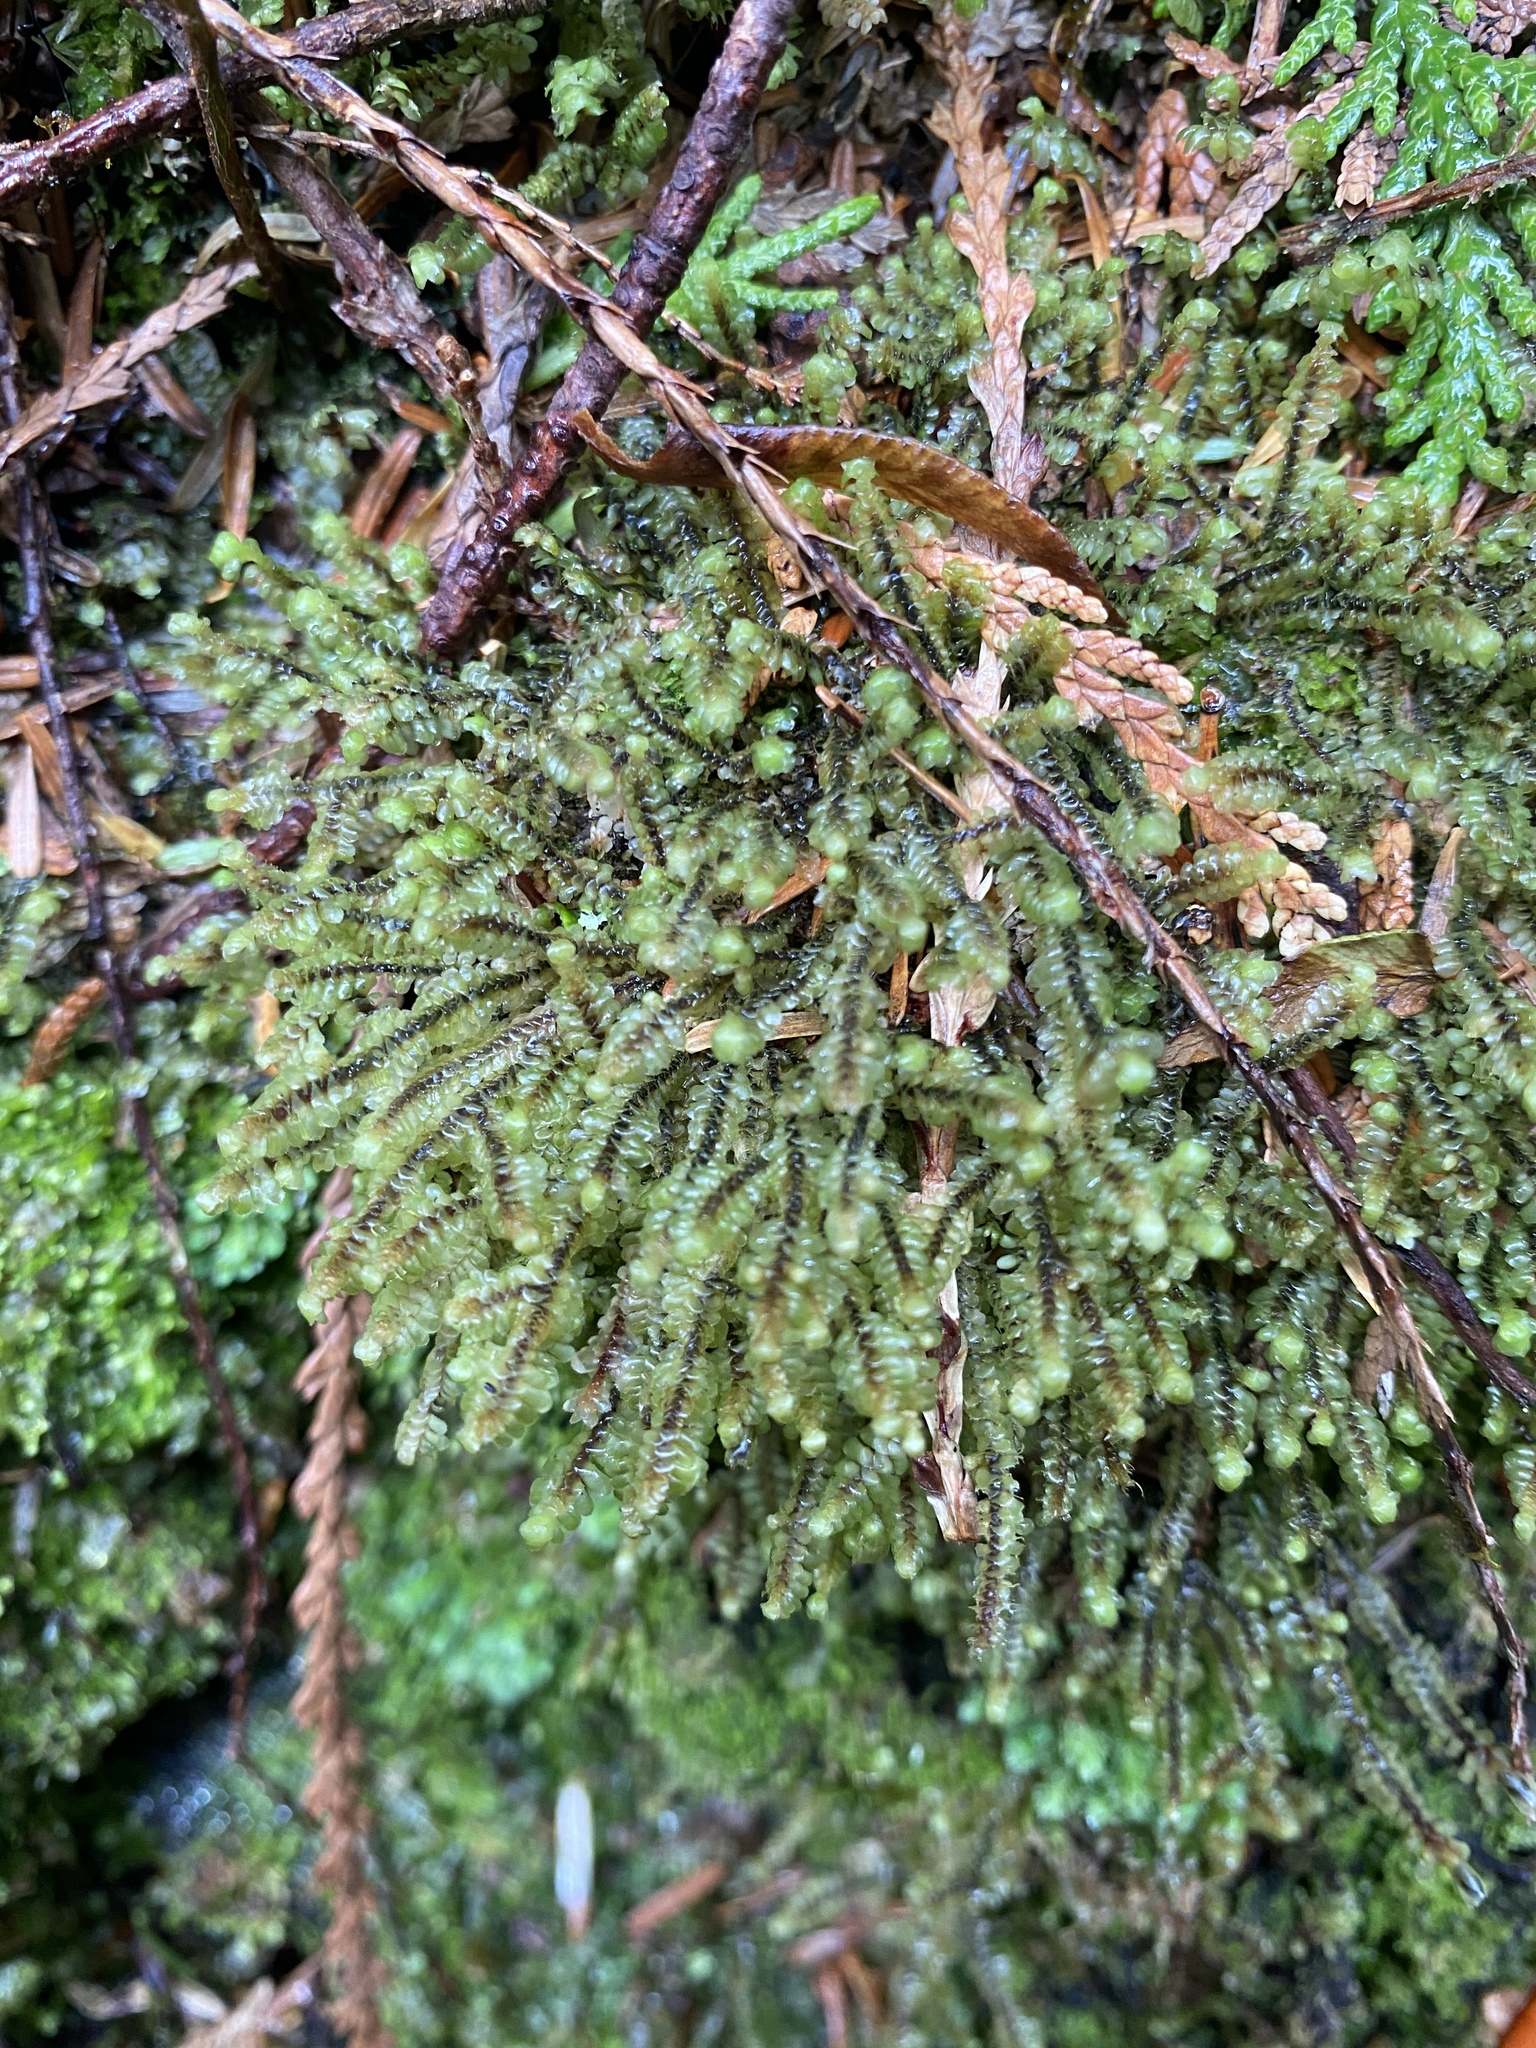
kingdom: Plantae
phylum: Marchantiophyta
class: Jungermanniopsida
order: Jungermanniales
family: Scapaniaceae
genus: Scapania
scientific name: Scapania bolanderi
